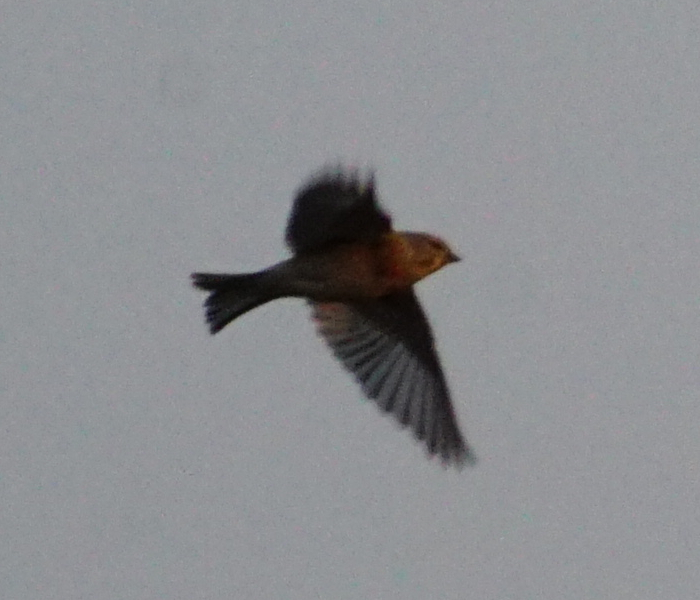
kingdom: Animalia
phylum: Chordata
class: Aves
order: Passeriformes
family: Fringillidae
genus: Linaria
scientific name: Linaria cannabina
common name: Common linnet
